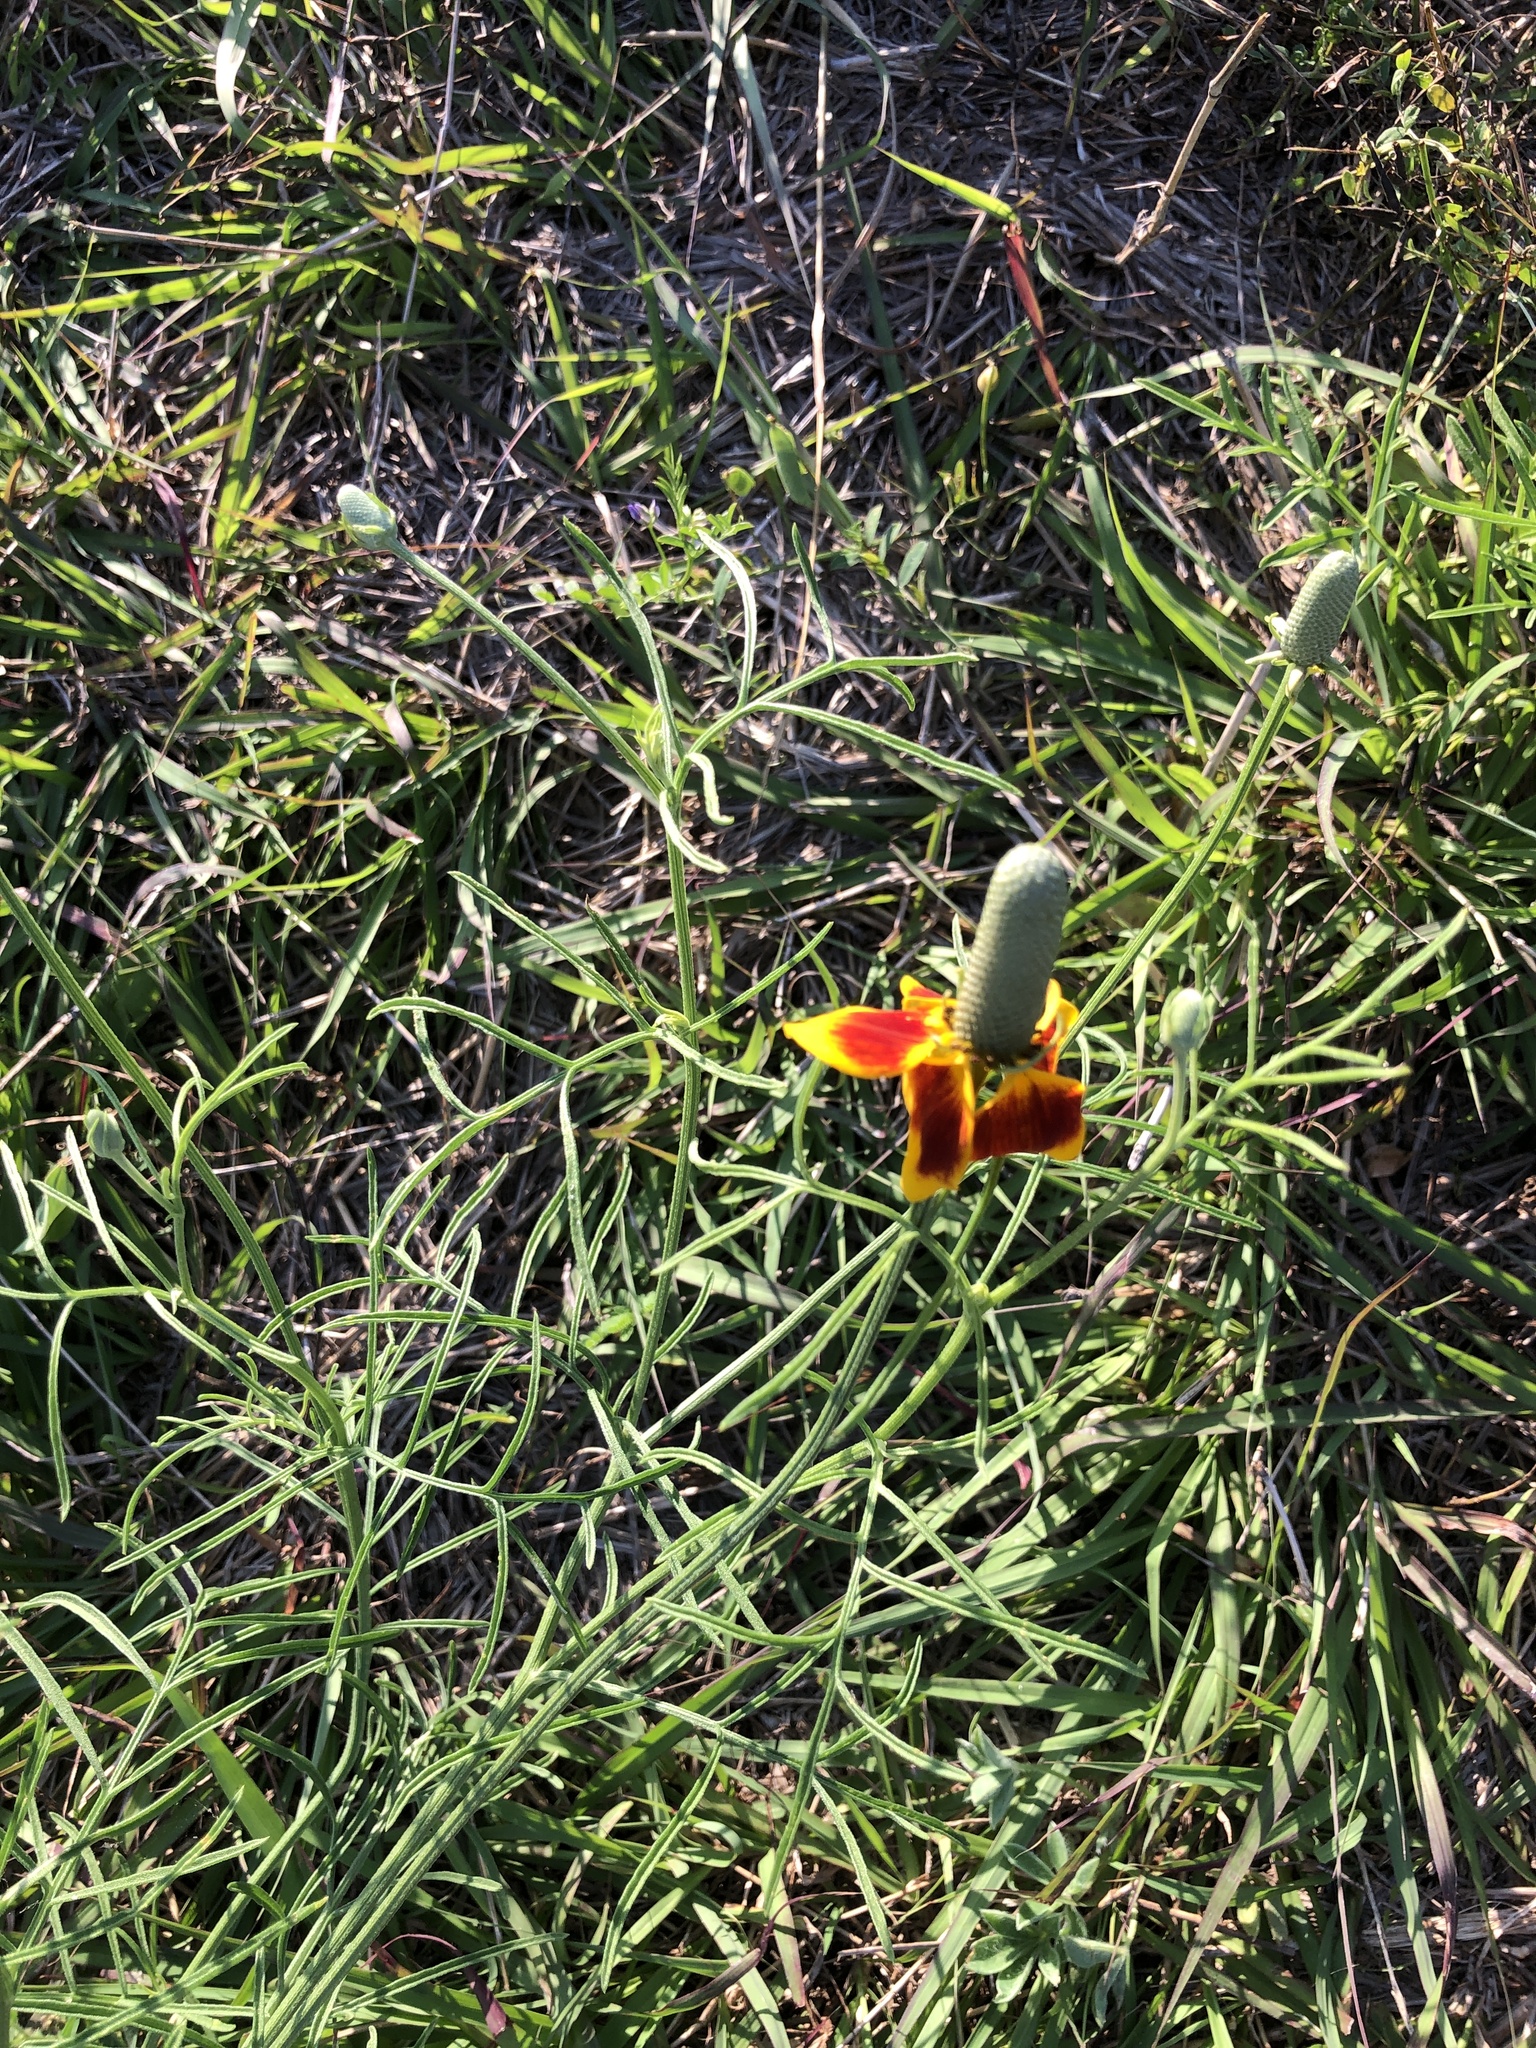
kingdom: Plantae
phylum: Tracheophyta
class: Magnoliopsida
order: Asterales
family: Asteraceae
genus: Ratibida
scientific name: Ratibida columnifera
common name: Prairie coneflower
